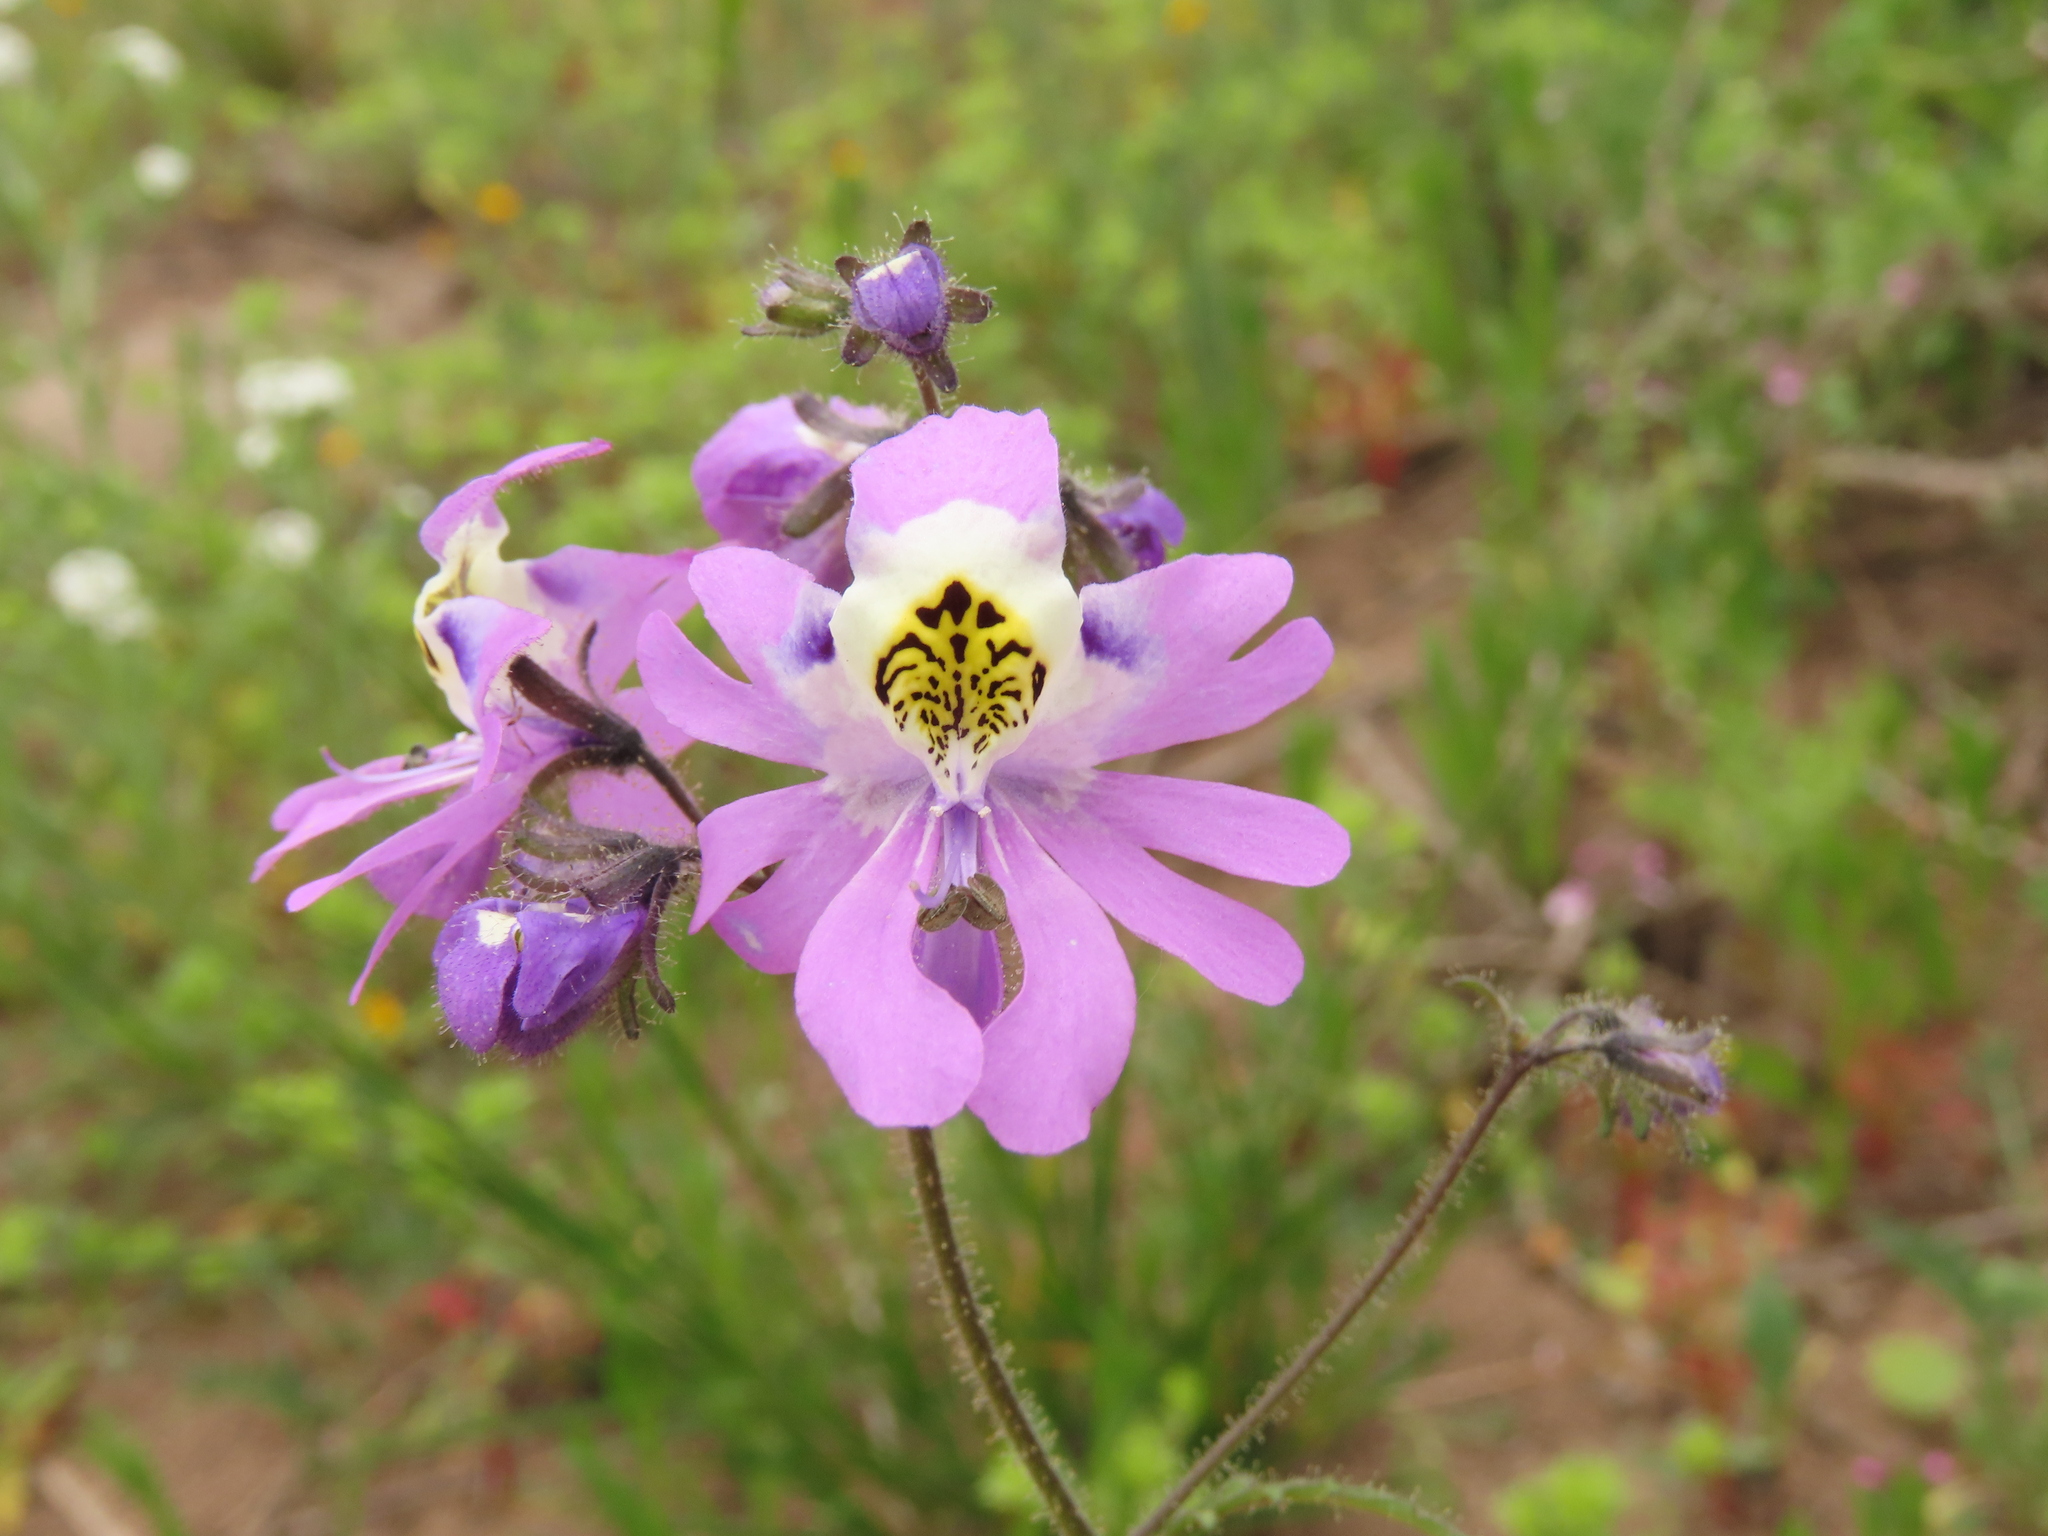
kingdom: Plantae
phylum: Tracheophyta
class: Magnoliopsida
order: Solanales
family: Solanaceae
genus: Schizanthus
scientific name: Schizanthus porrigens
